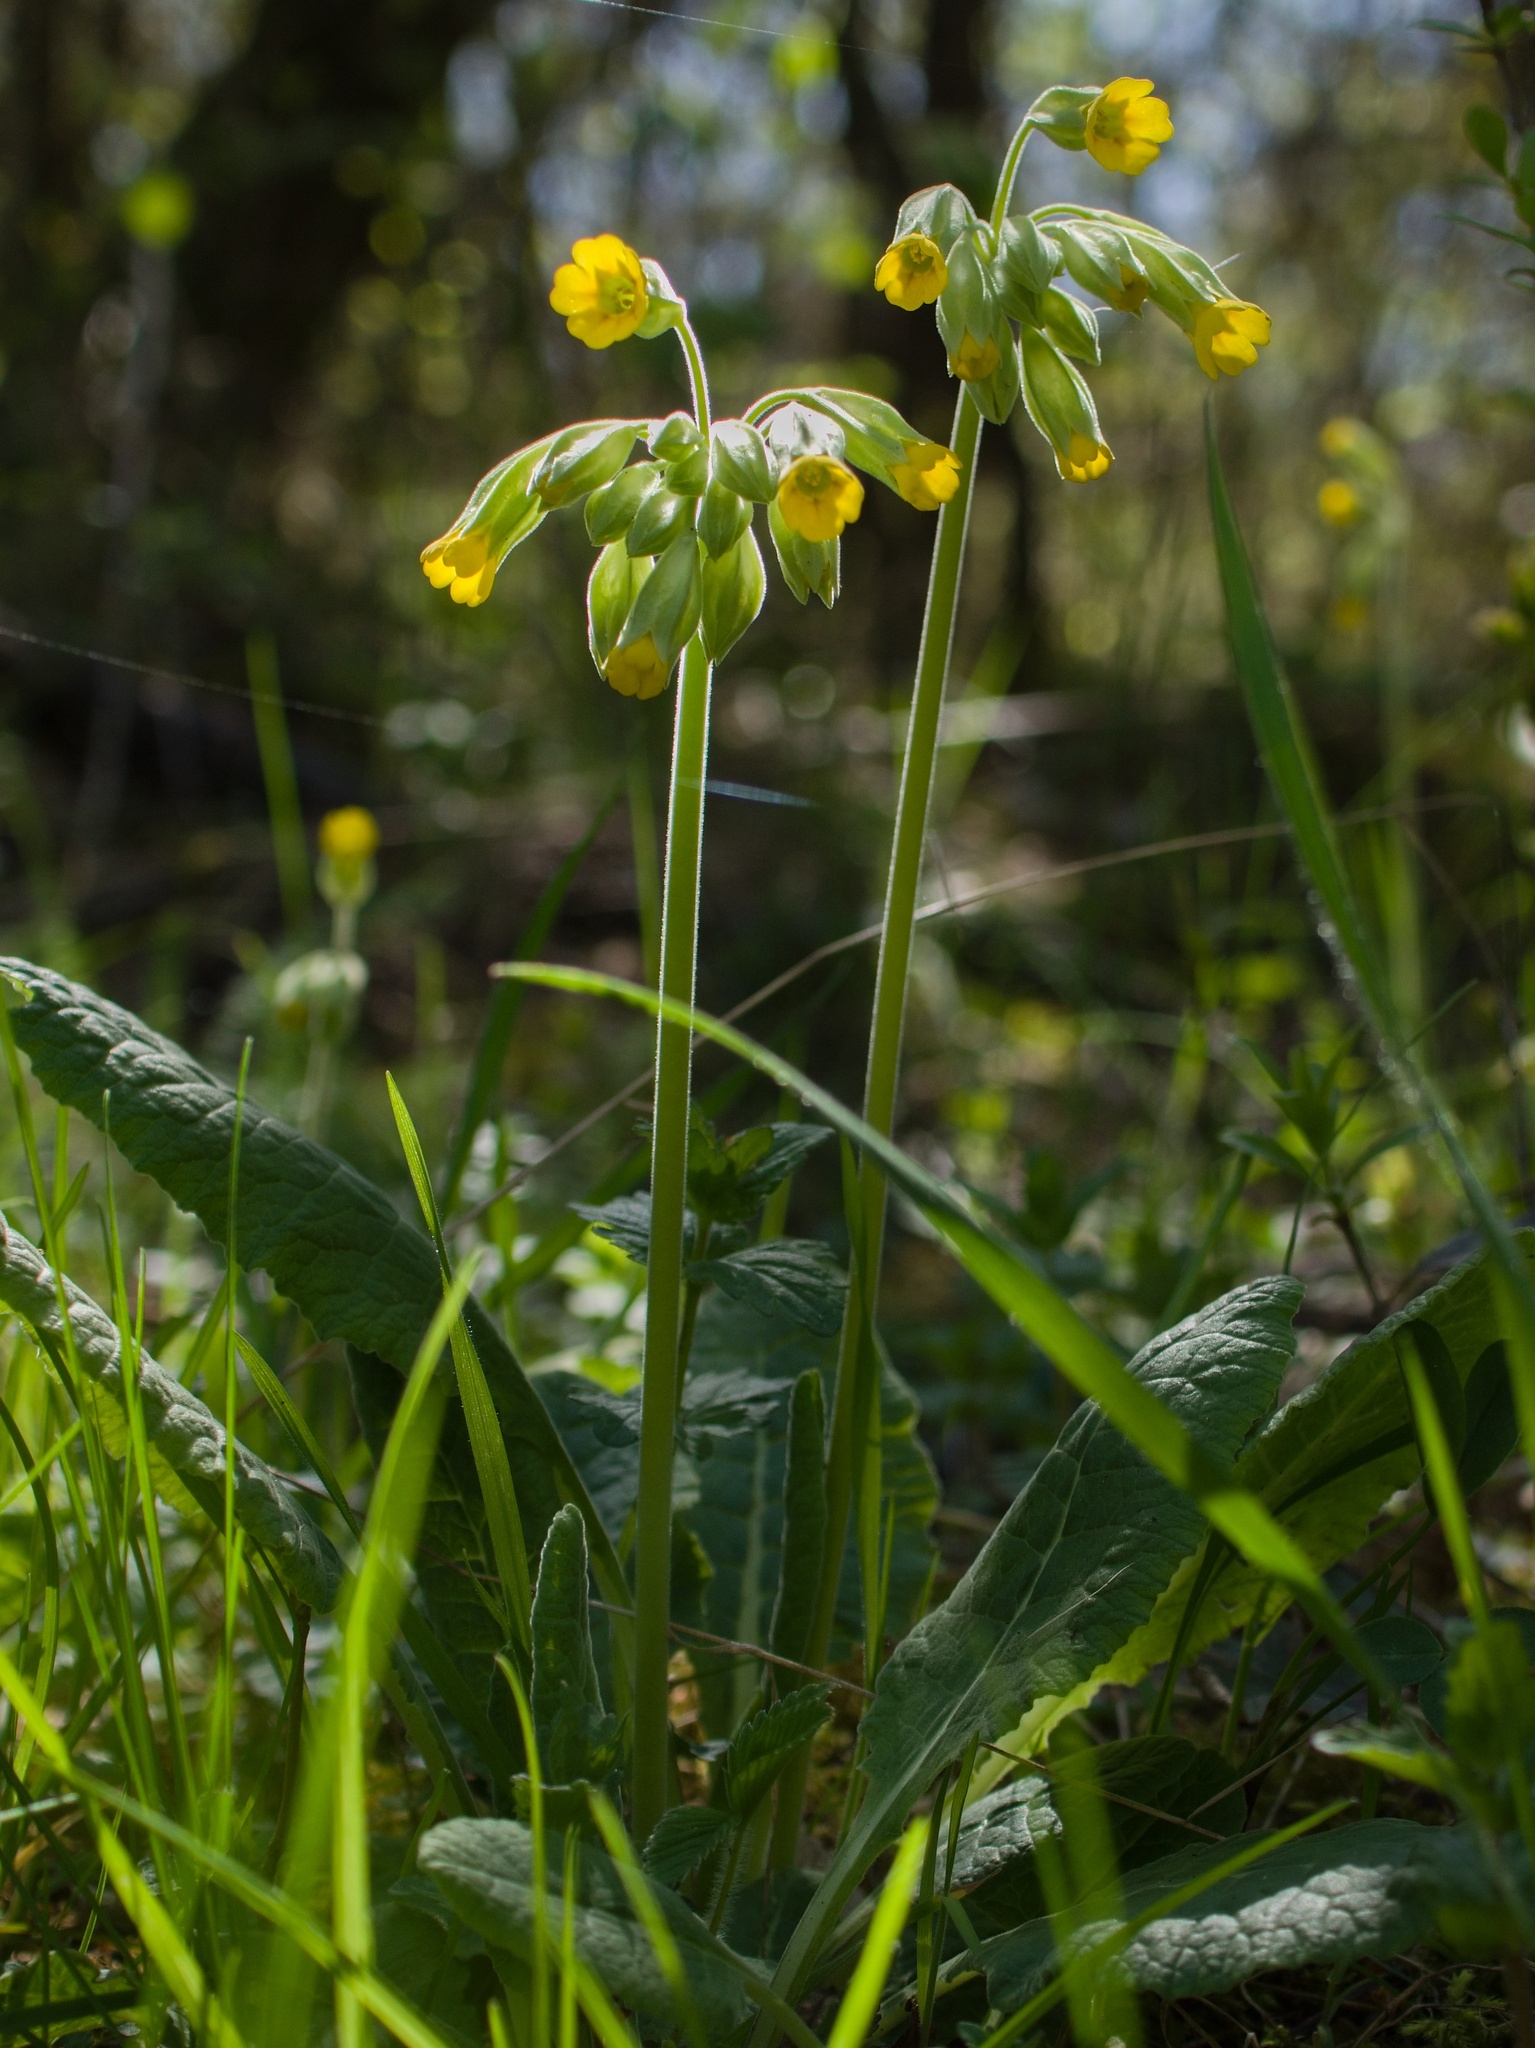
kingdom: Plantae
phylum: Tracheophyta
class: Magnoliopsida
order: Ericales
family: Primulaceae
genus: Primula
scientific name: Primula veris
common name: Cowslip
